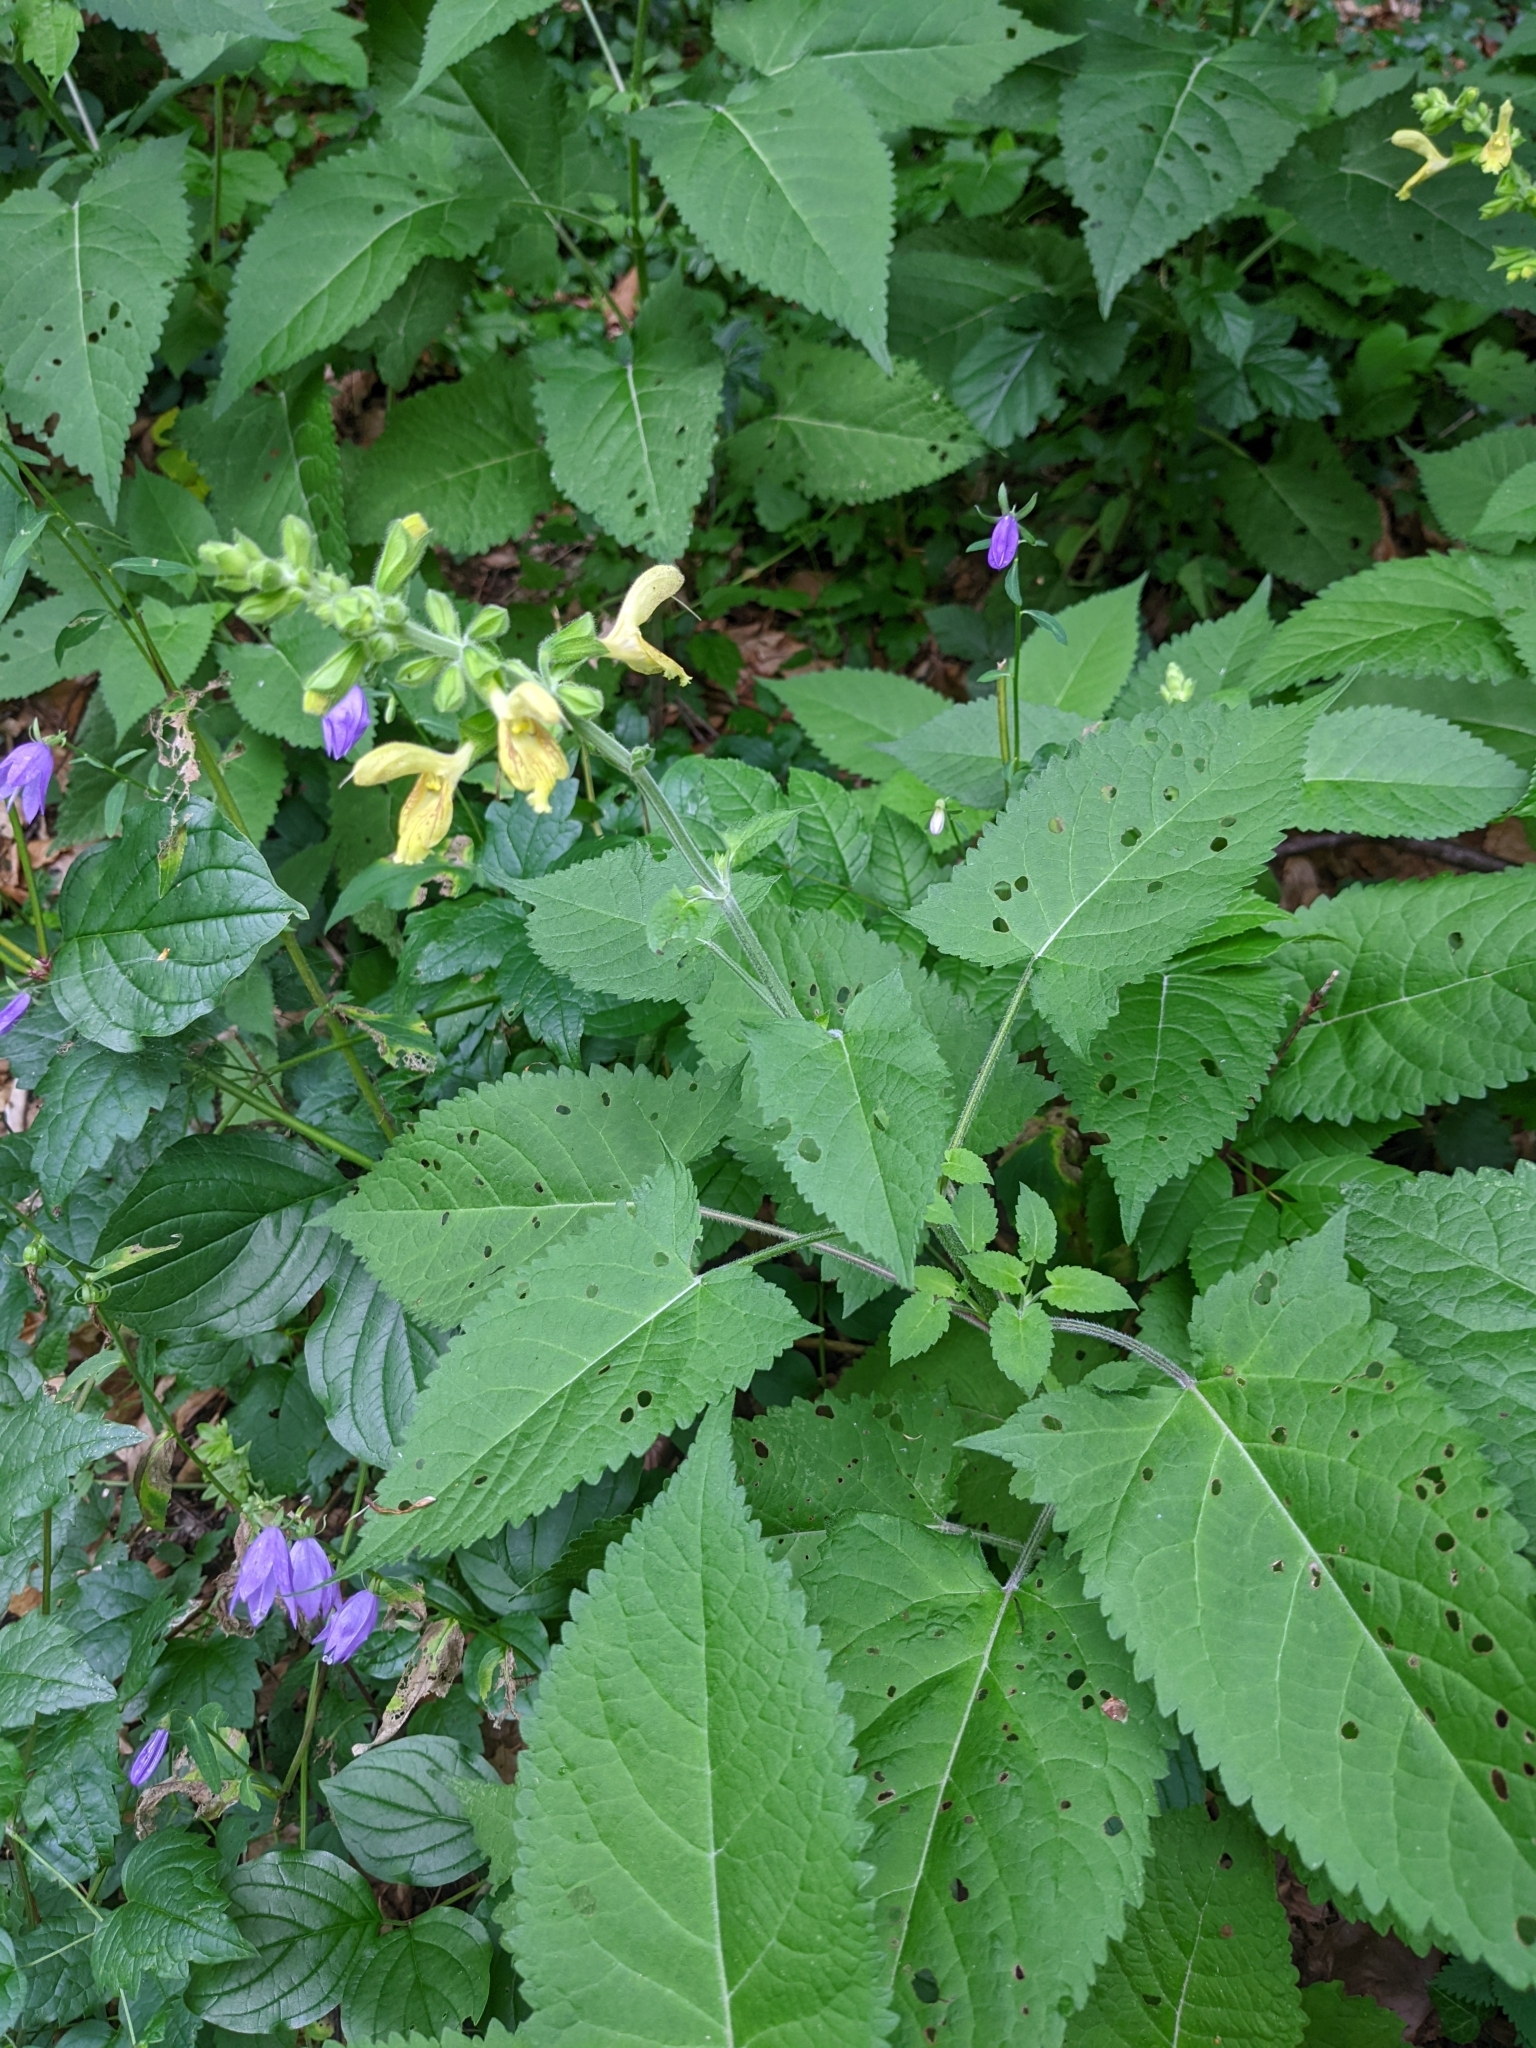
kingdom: Plantae
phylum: Tracheophyta
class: Magnoliopsida
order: Lamiales
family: Lamiaceae
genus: Salvia
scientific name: Salvia glutinosa
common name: Sticky clary
